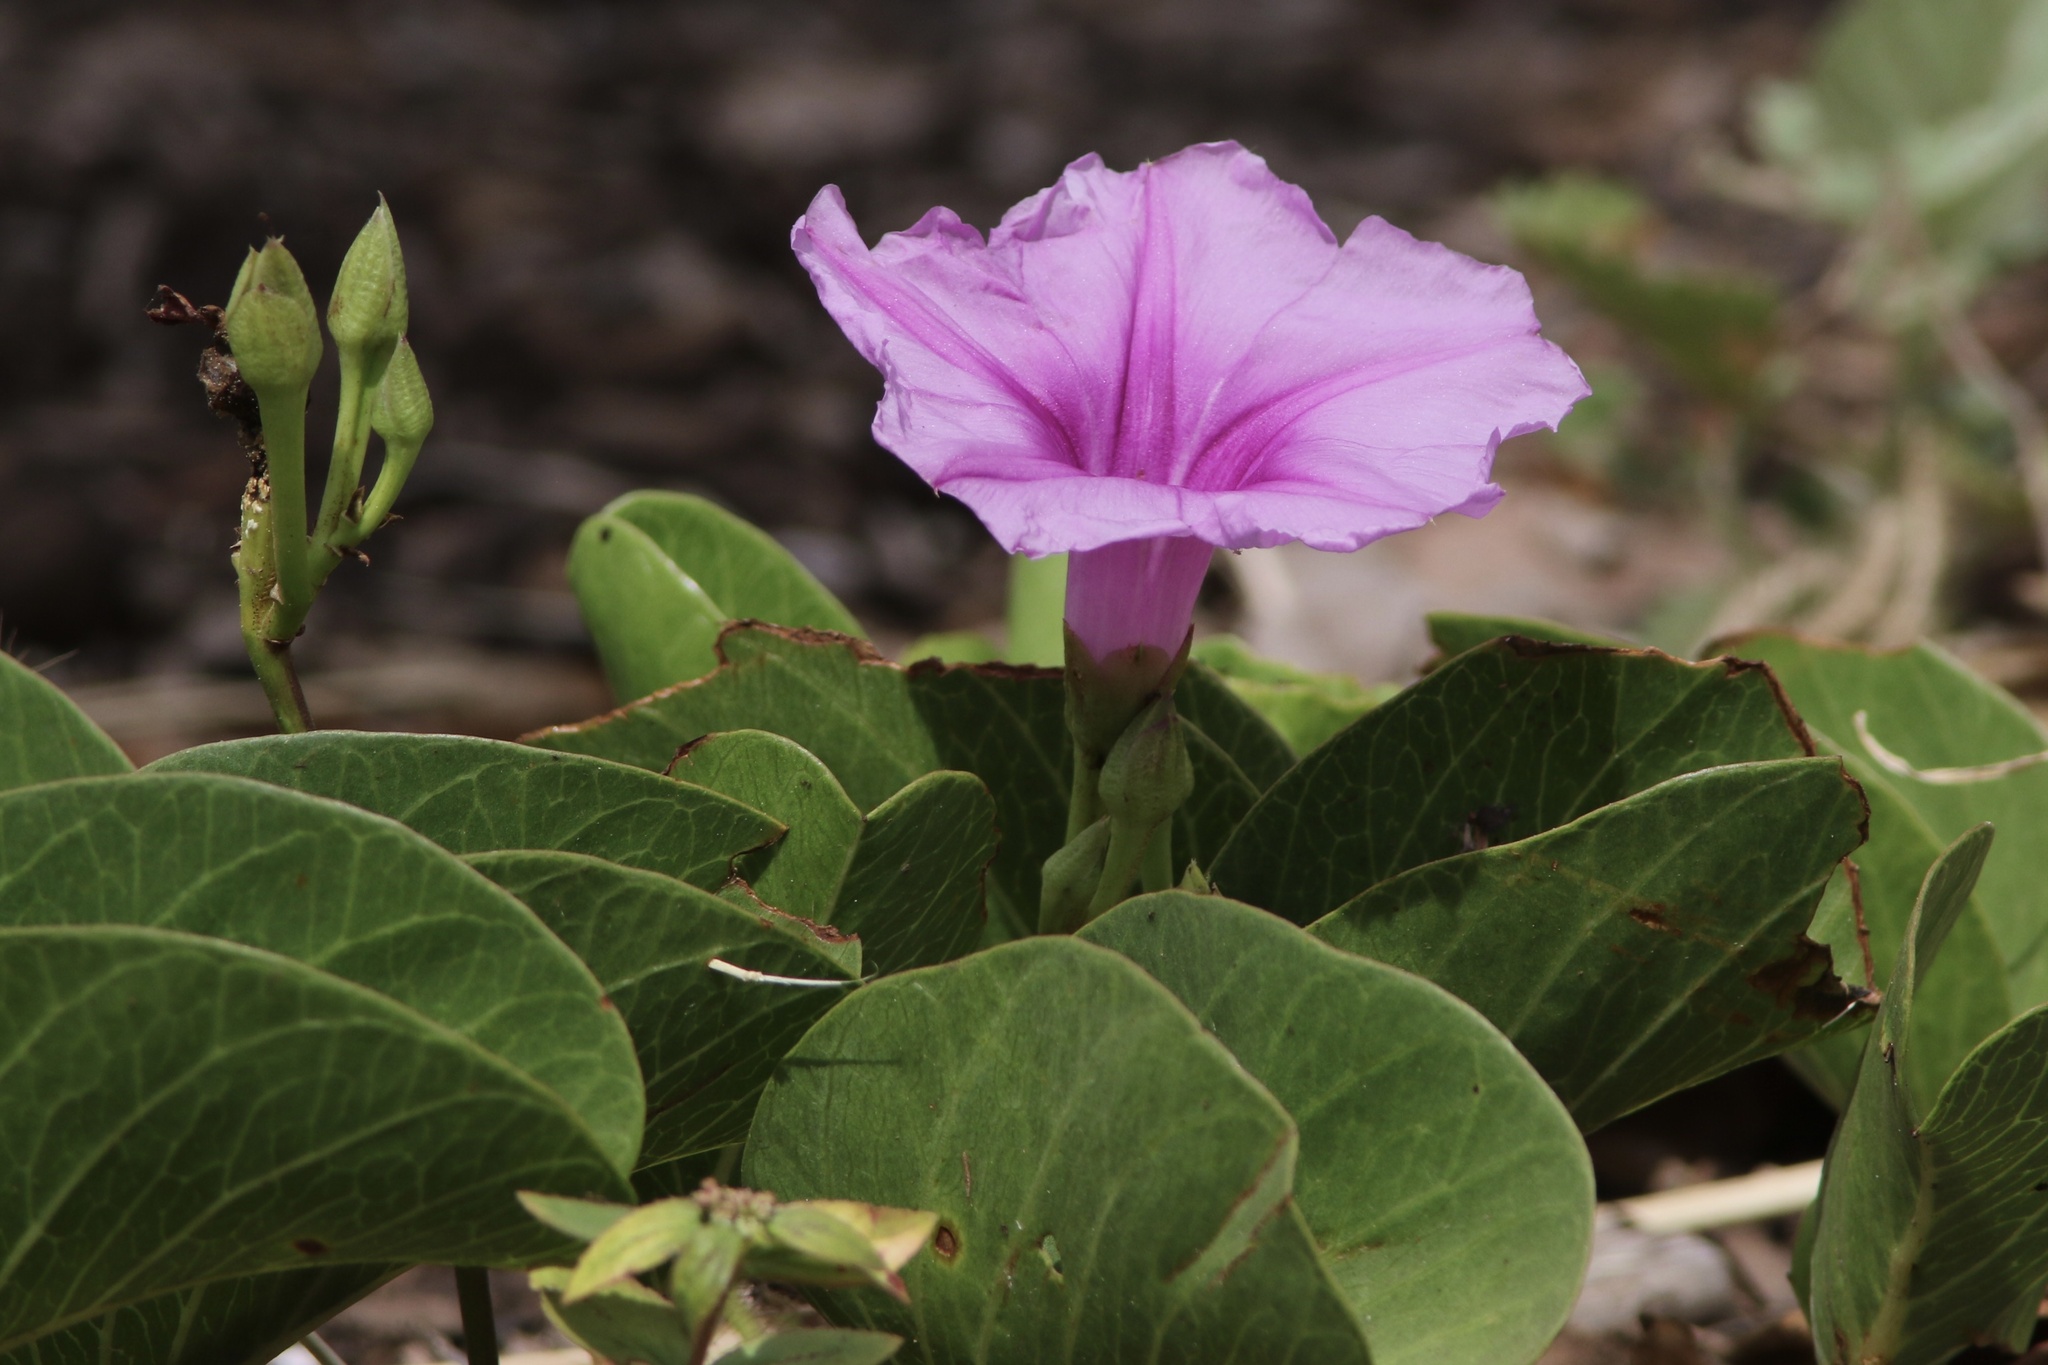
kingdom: Plantae
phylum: Tracheophyta
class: Magnoliopsida
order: Solanales
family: Convolvulaceae
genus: Ipomoea
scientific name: Ipomoea pes-caprae
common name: Beach morning glory
